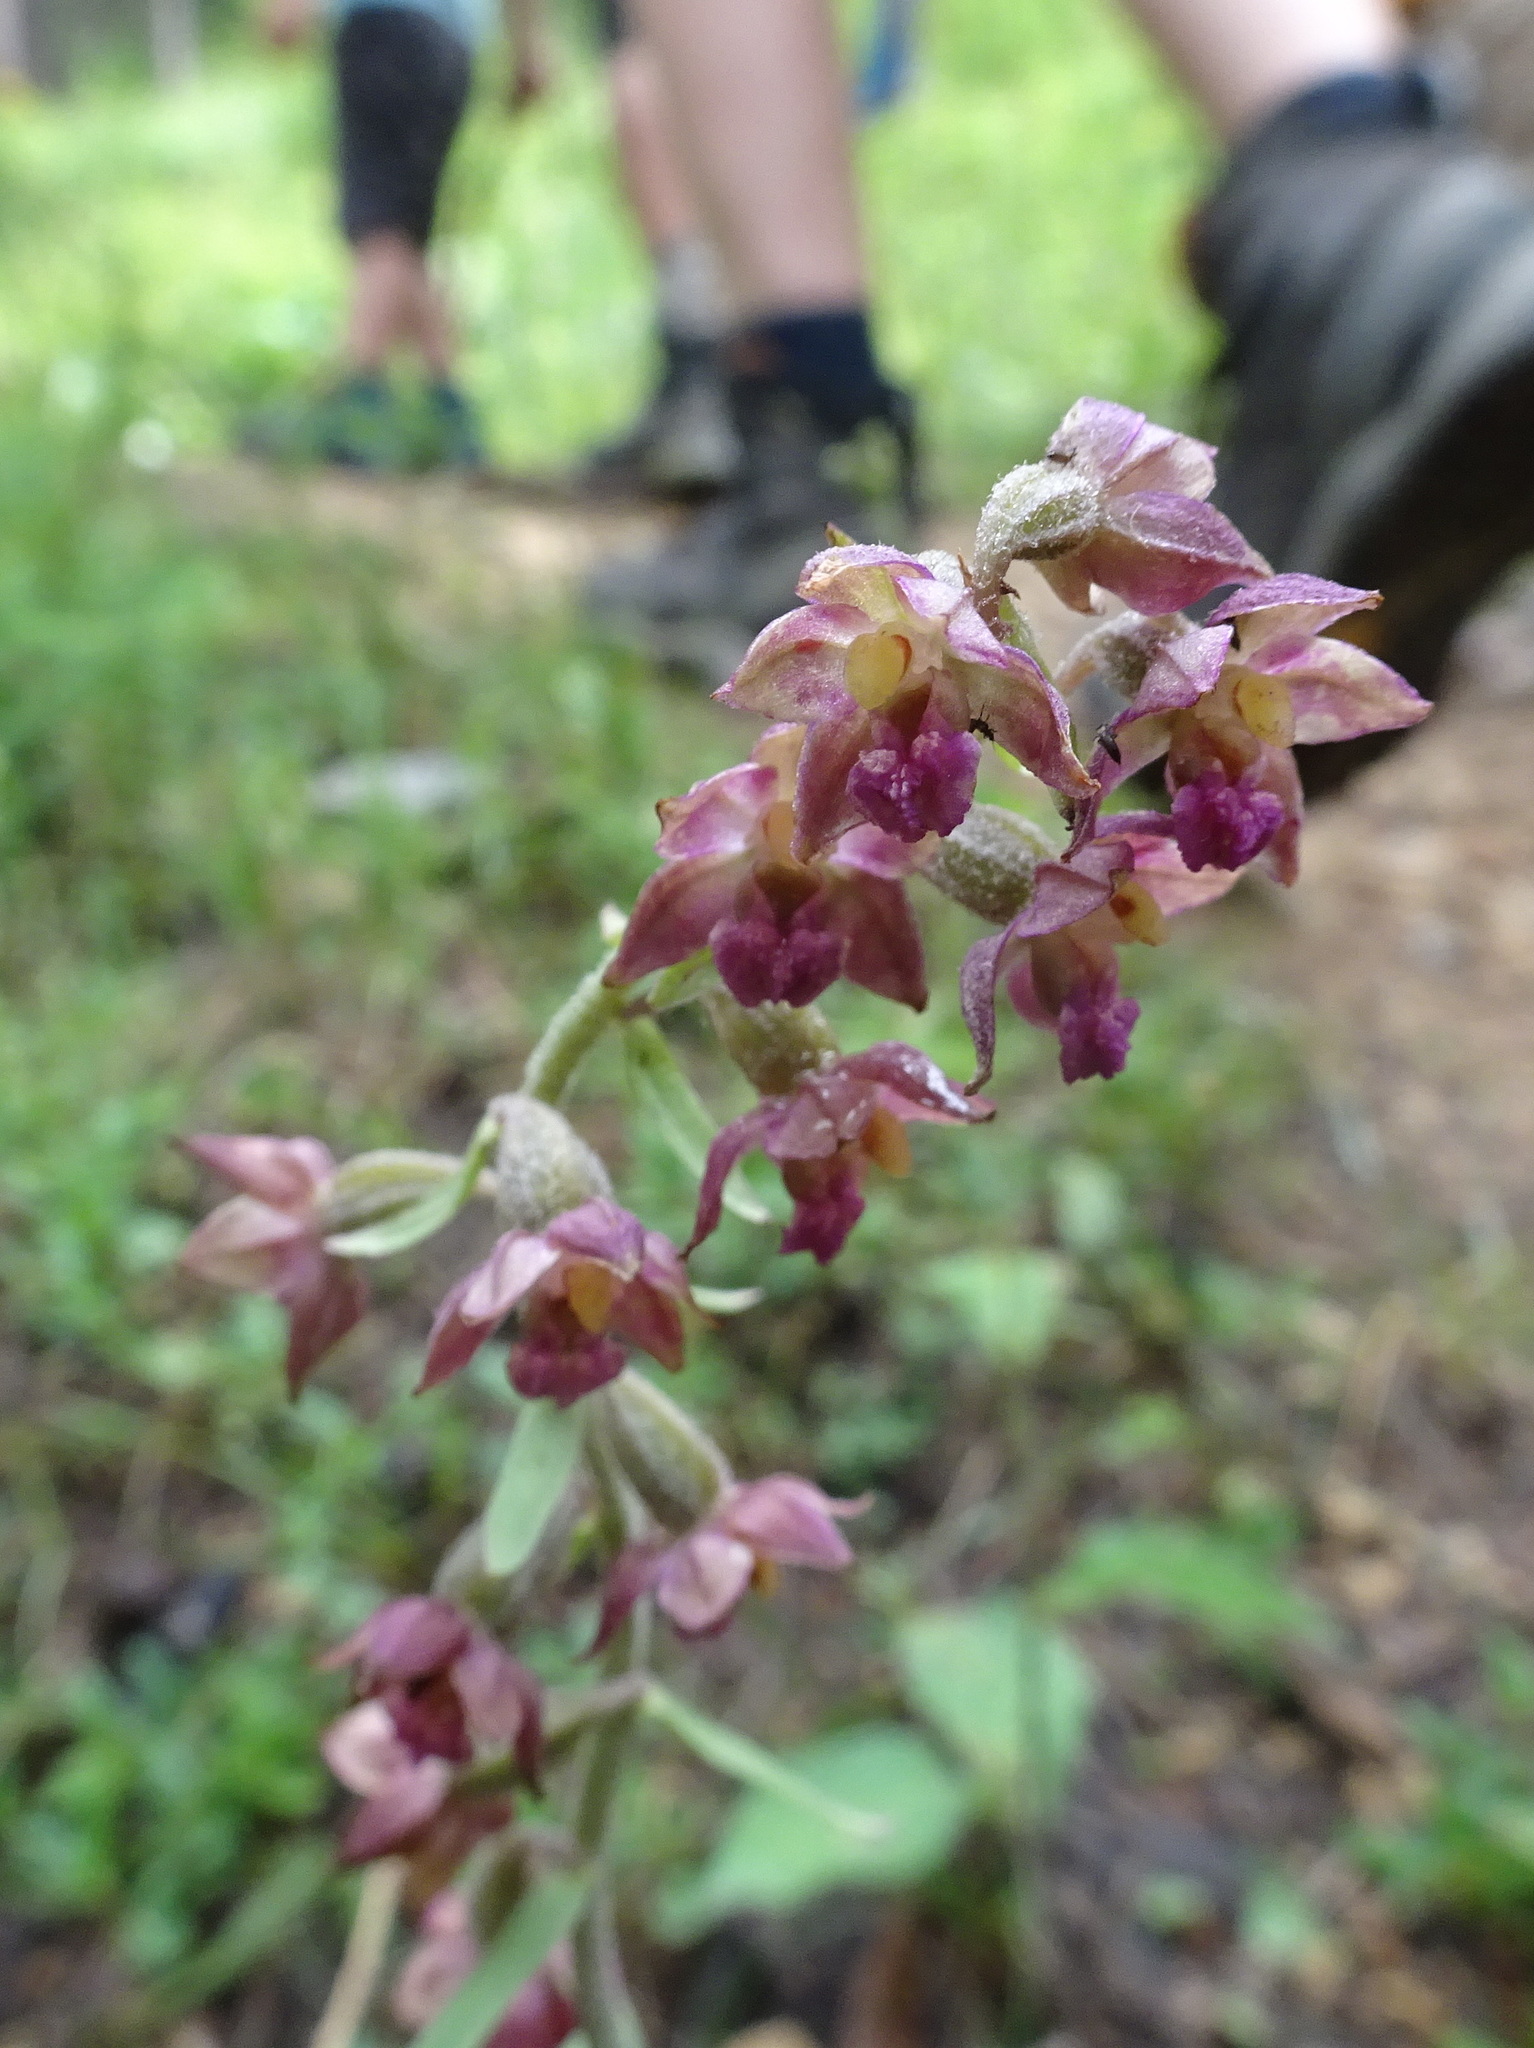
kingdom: Plantae
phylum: Tracheophyta
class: Liliopsida
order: Asparagales
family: Orchidaceae
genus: Epipactis
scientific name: Epipactis atrorubens
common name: Dark-red helleborine
